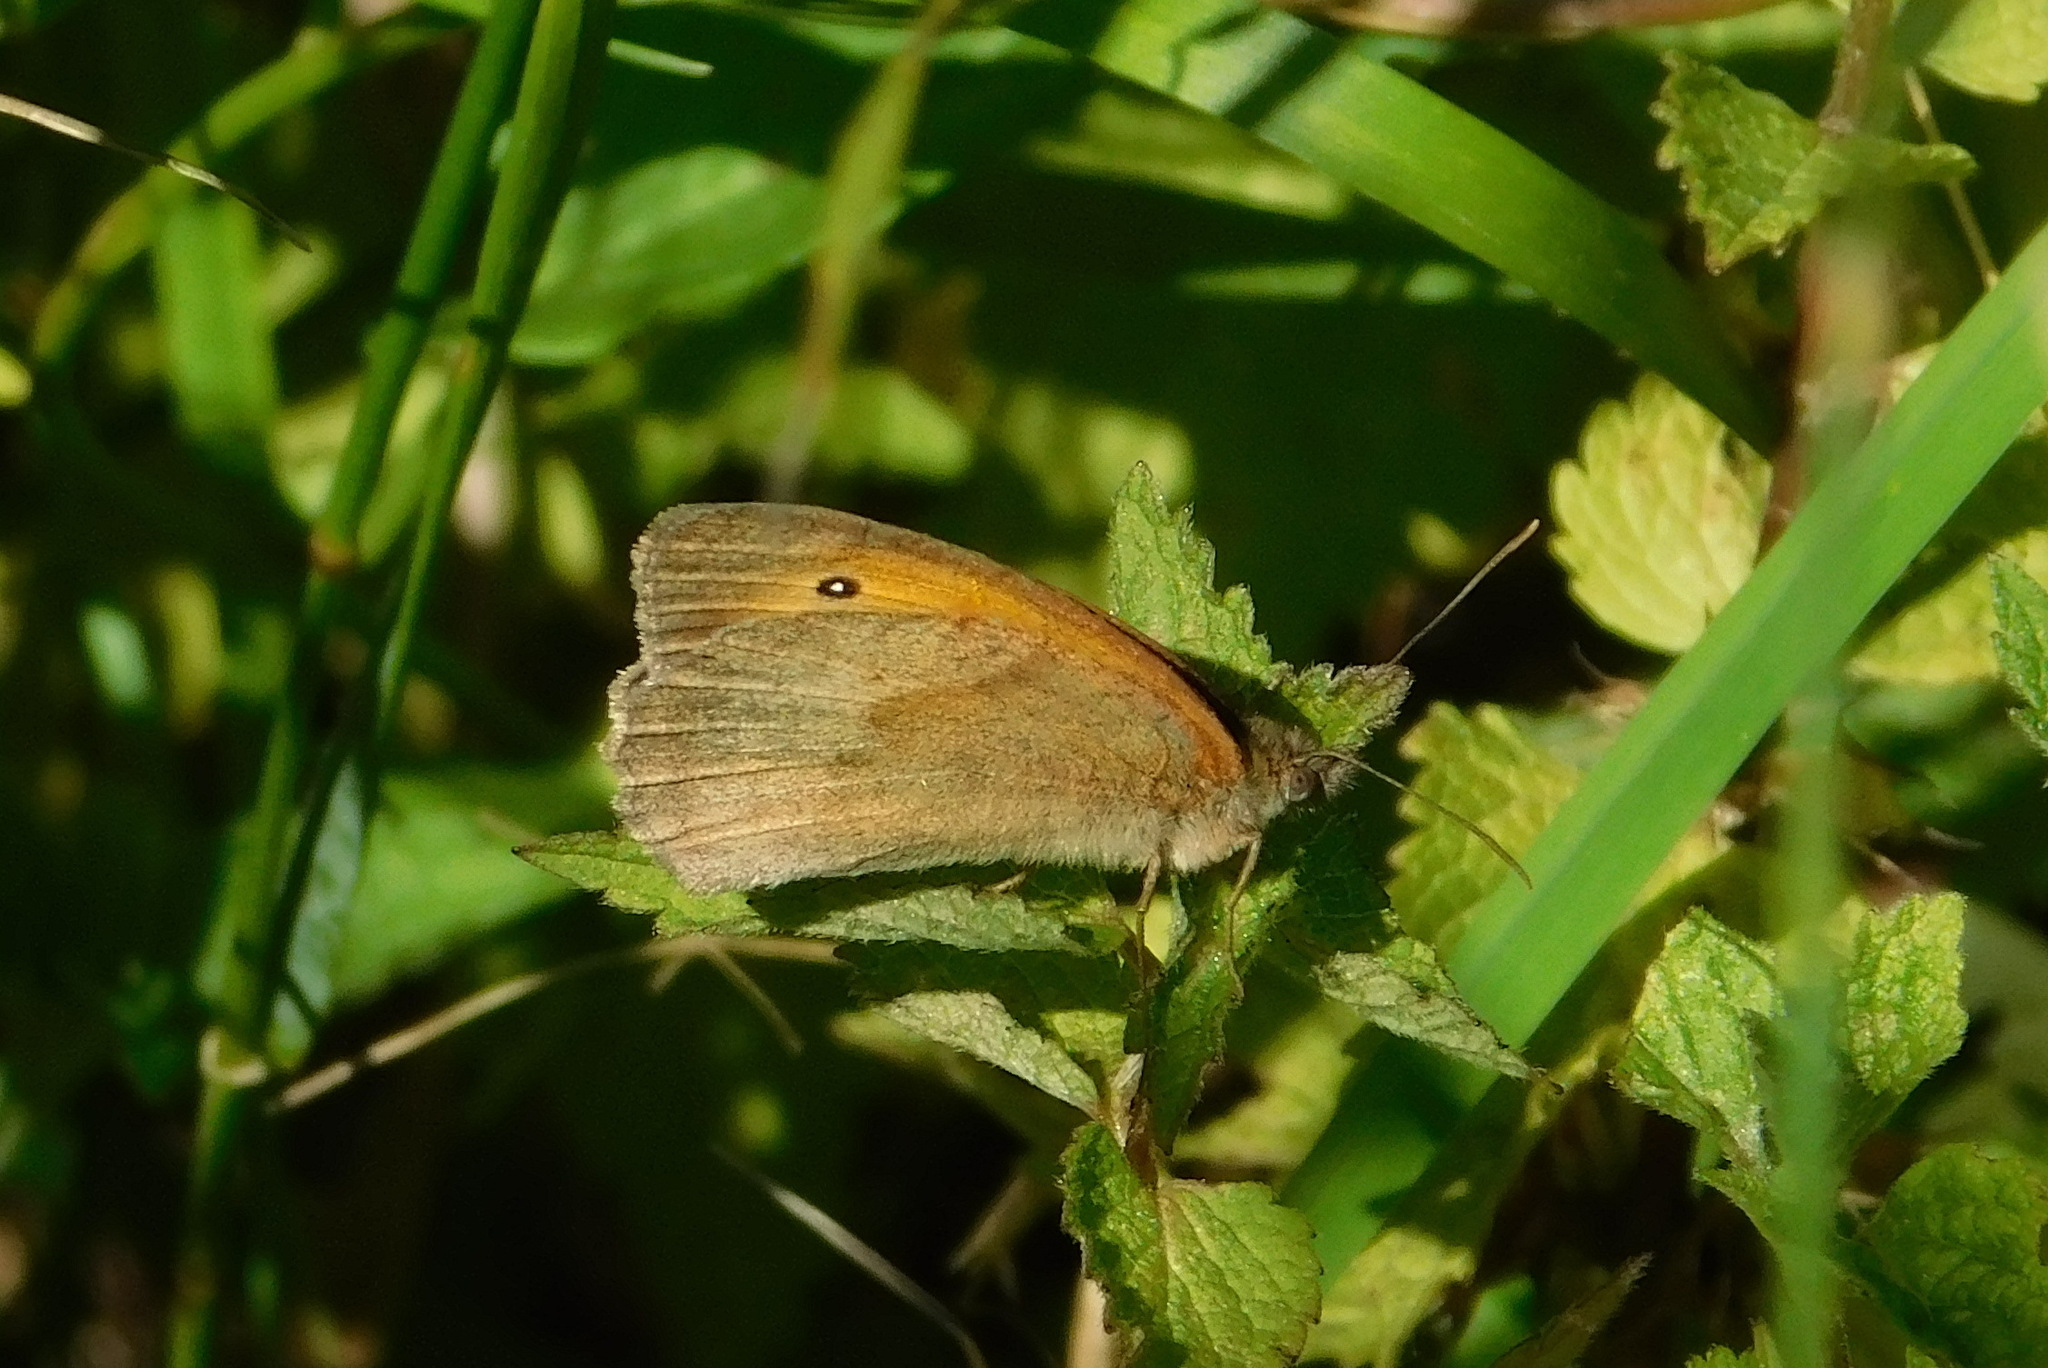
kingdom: Animalia
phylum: Arthropoda
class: Insecta
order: Lepidoptera
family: Nymphalidae
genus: Maniola
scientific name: Maniola jurtina
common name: Meadow brown
